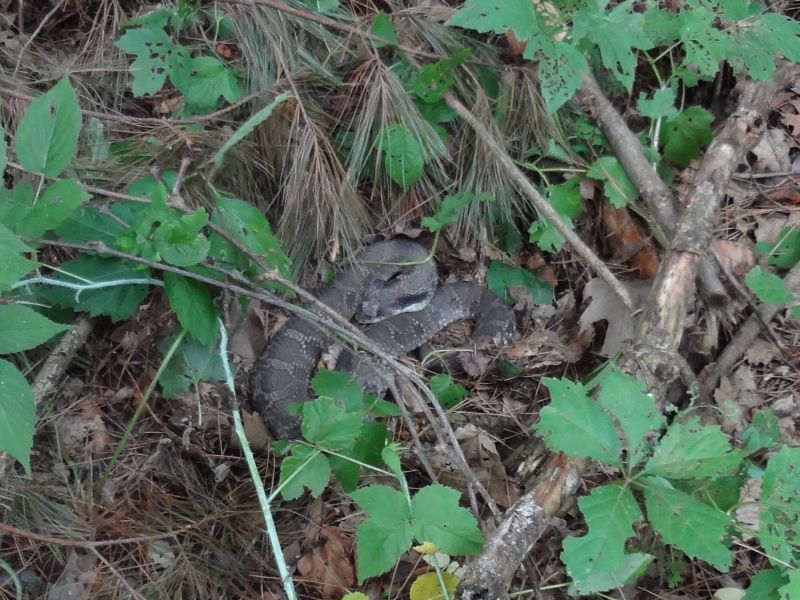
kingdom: Animalia
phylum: Chordata
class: Squamata
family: Colubridae
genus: Heterodon
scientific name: Heterodon platirhinos
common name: Eastern hognose snake
